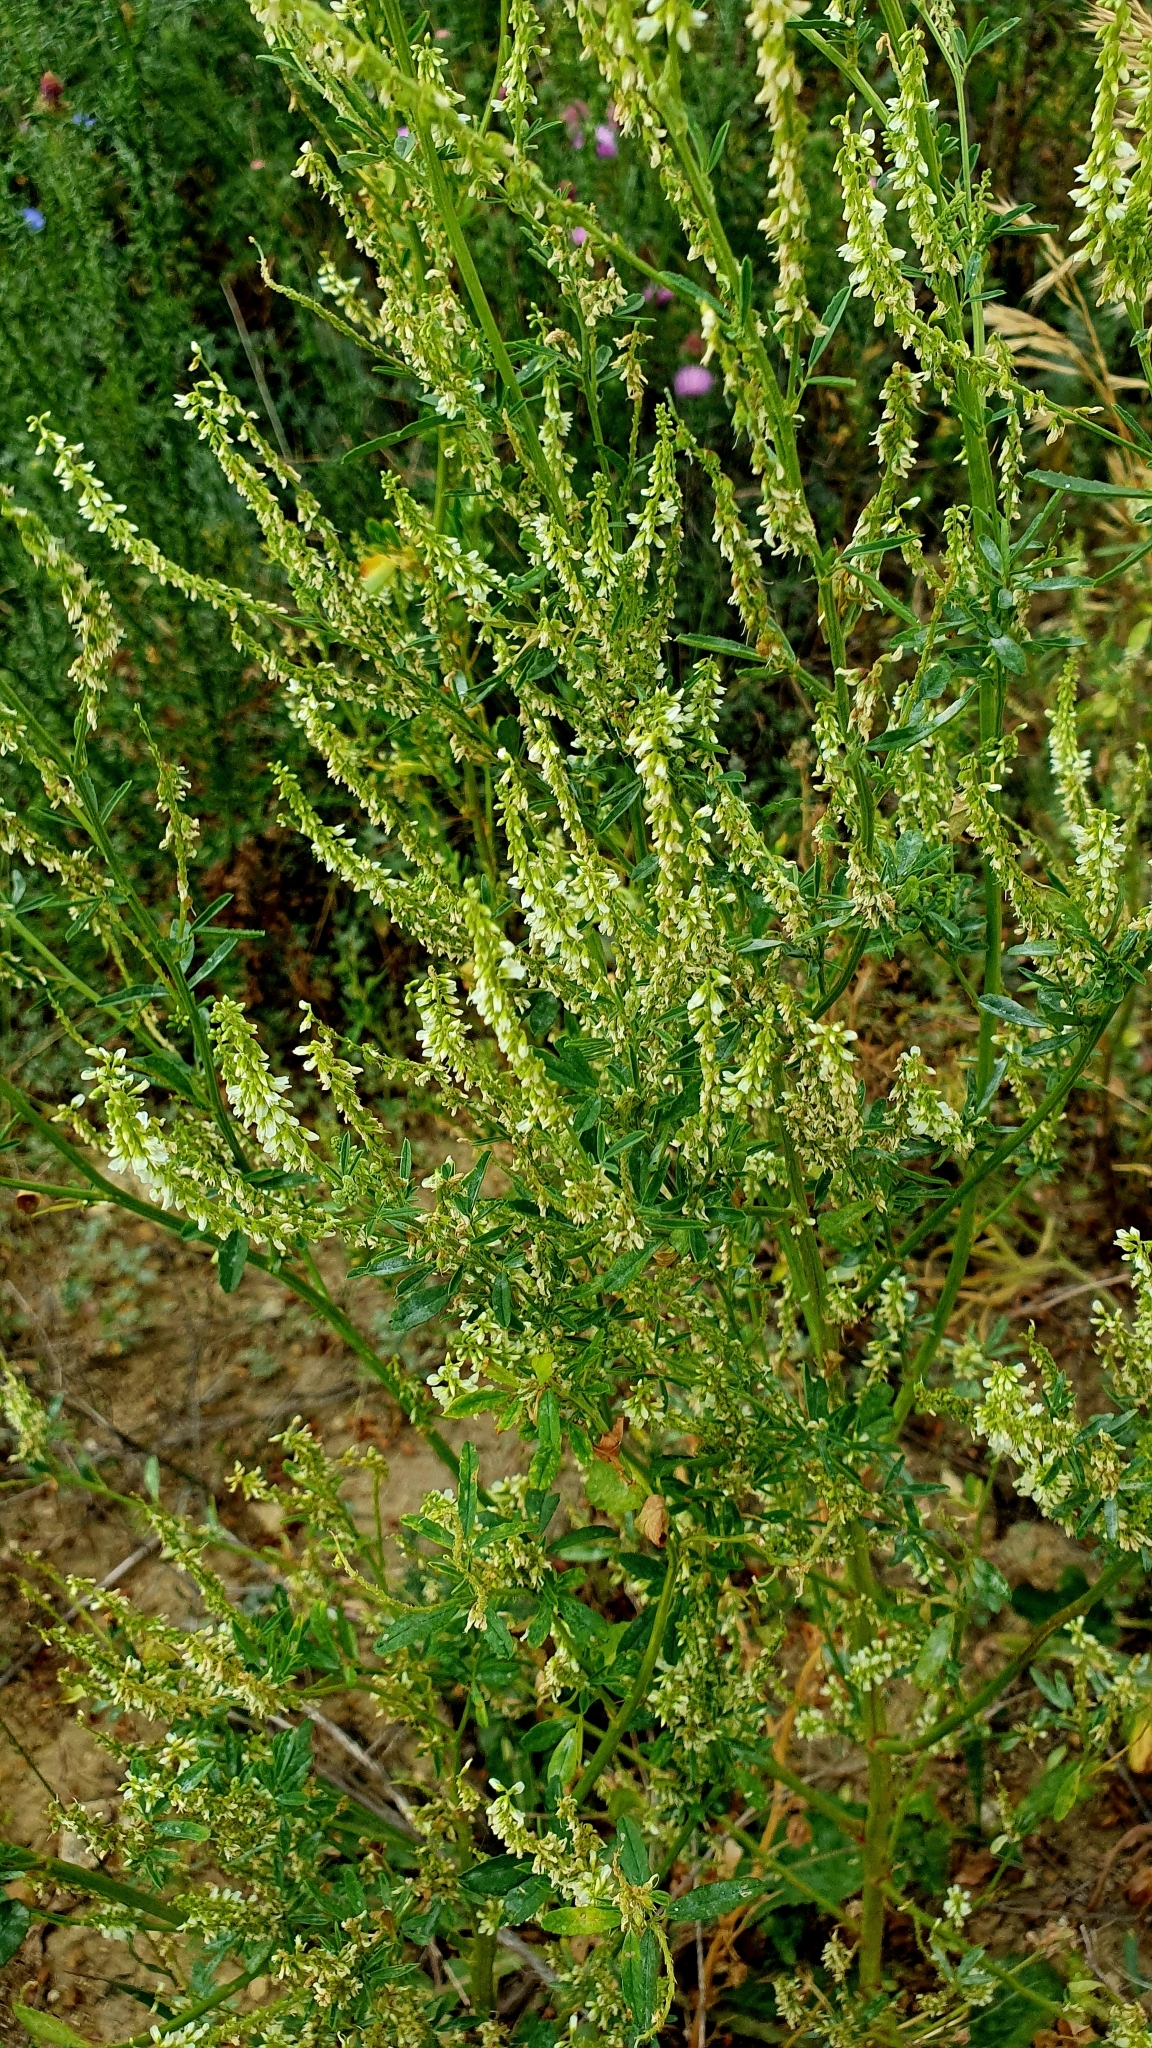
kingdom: Plantae
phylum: Tracheophyta
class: Magnoliopsida
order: Fabales
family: Fabaceae
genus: Melilotus
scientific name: Melilotus albus
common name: White melilot
